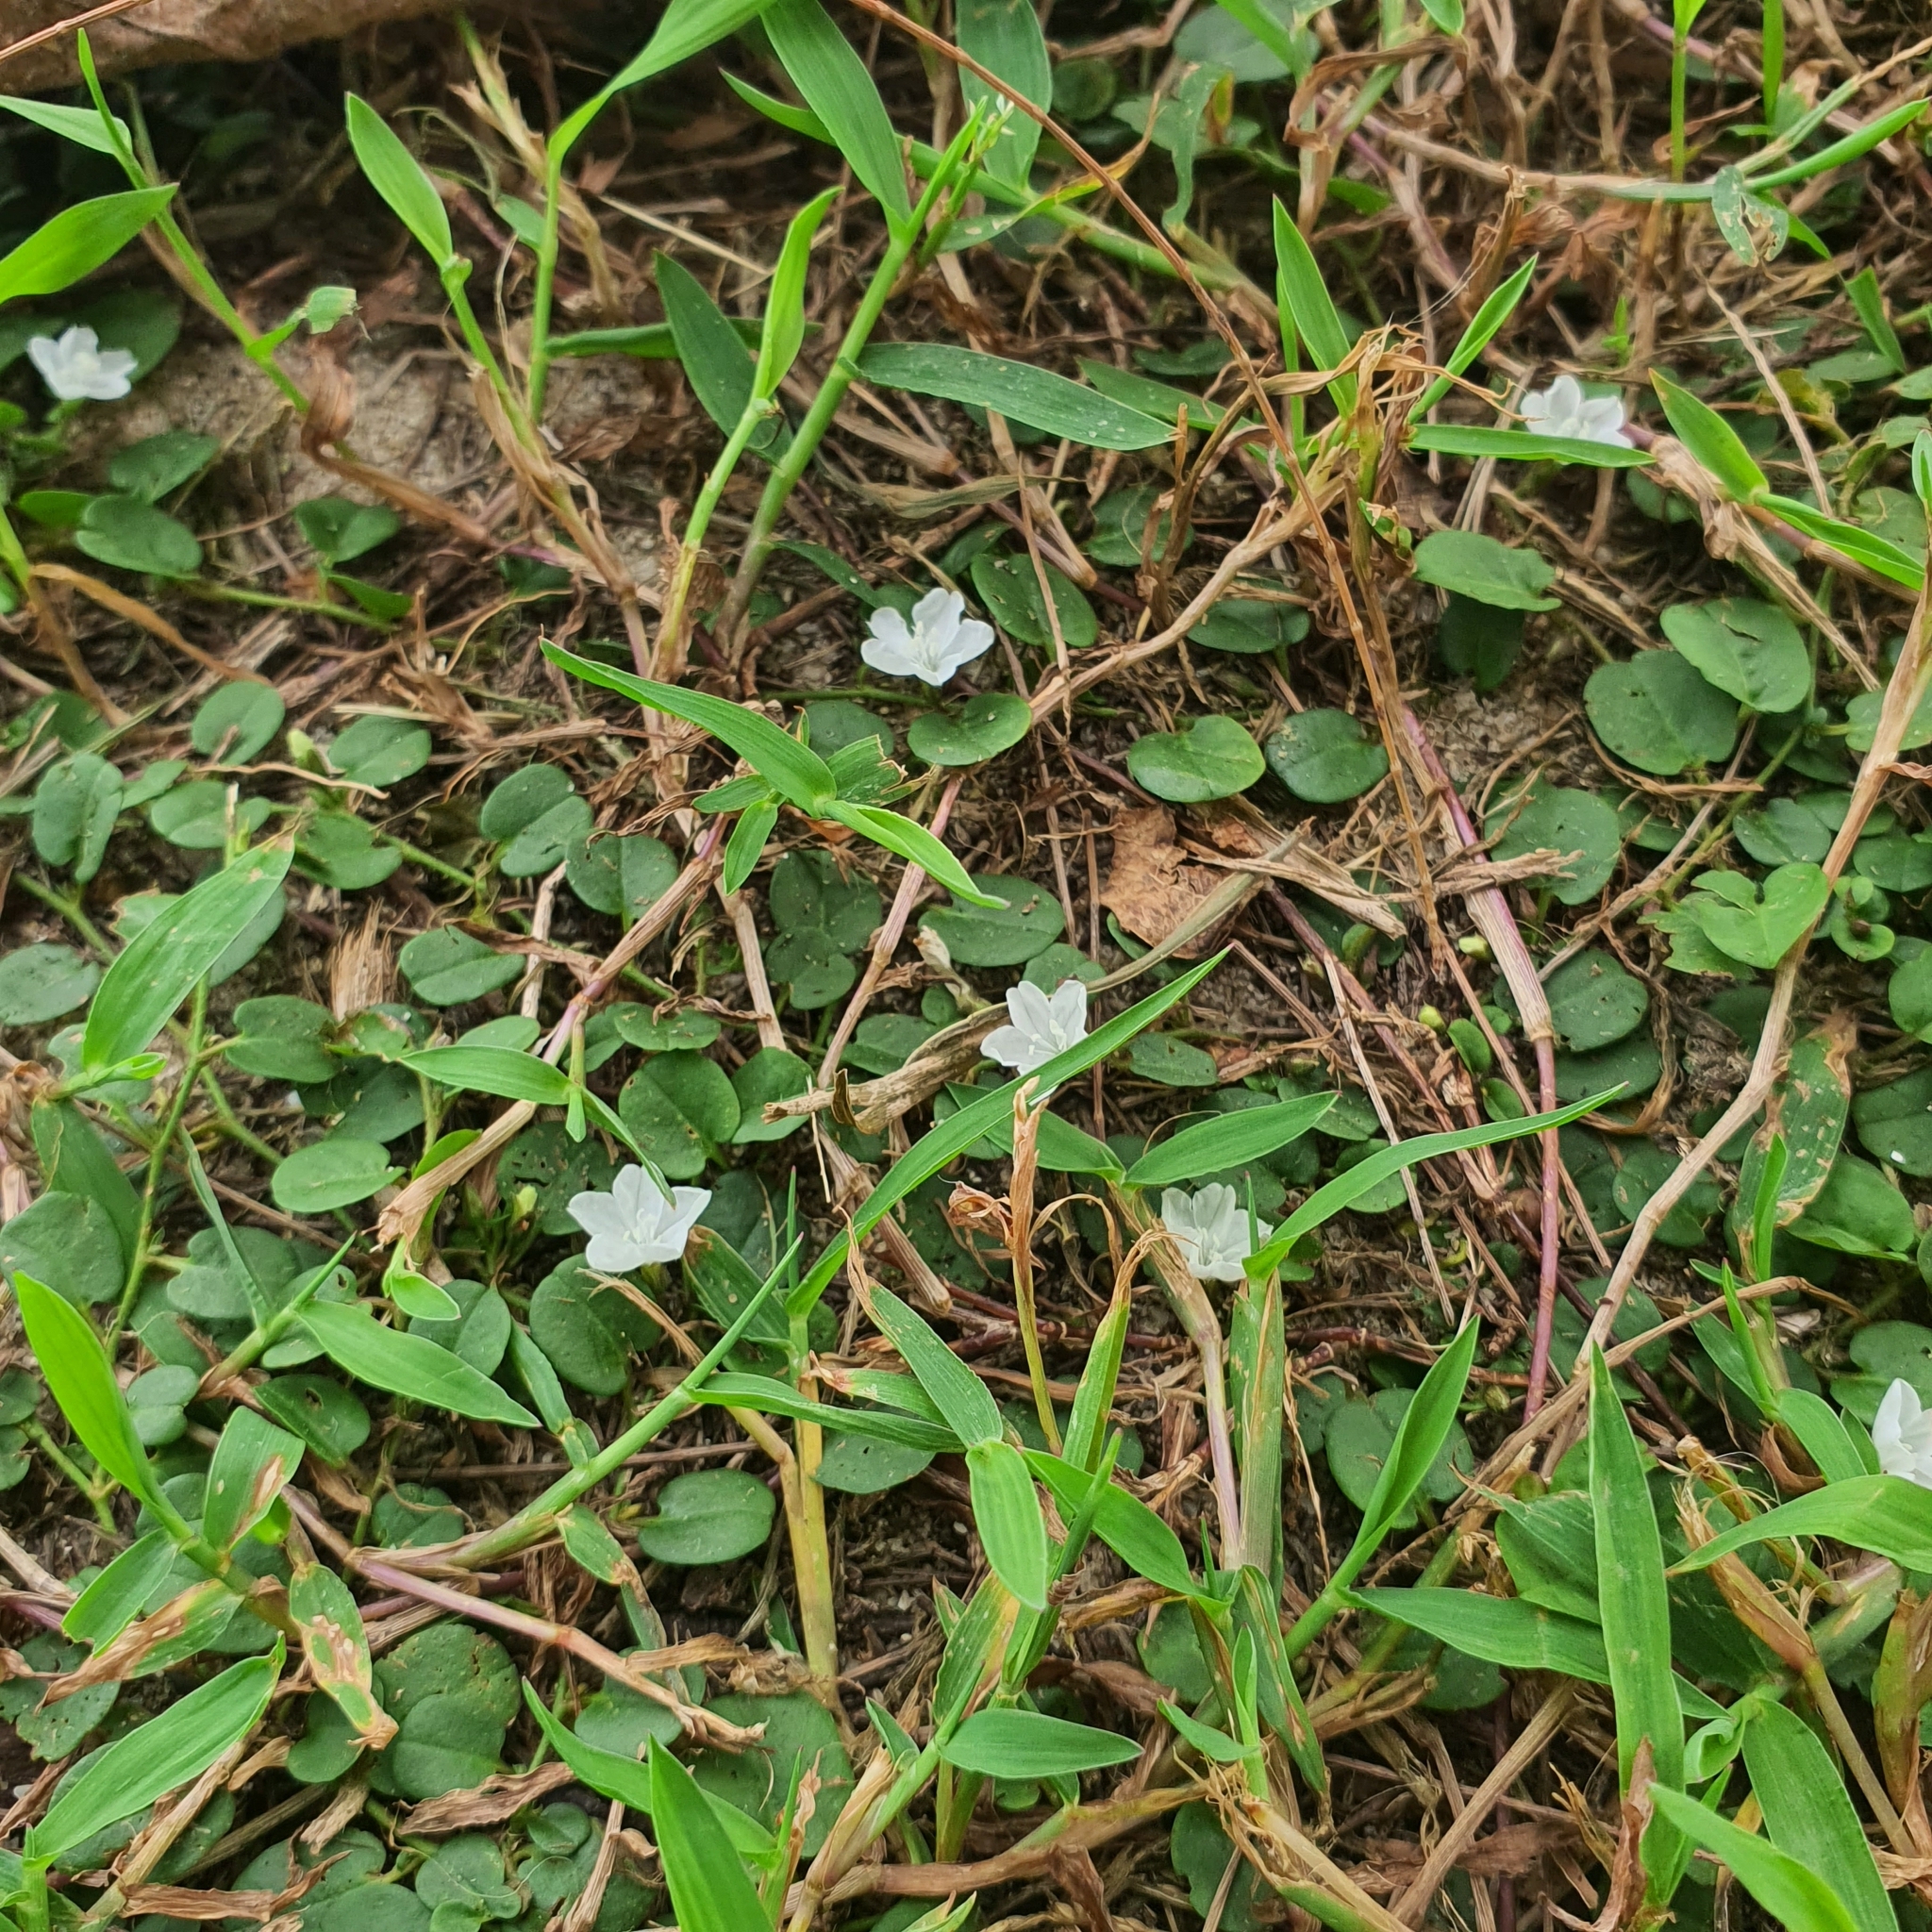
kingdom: Plantae
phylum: Tracheophyta
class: Magnoliopsida
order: Solanales
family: Convolvulaceae
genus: Evolvulus
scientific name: Evolvulus nummularius
